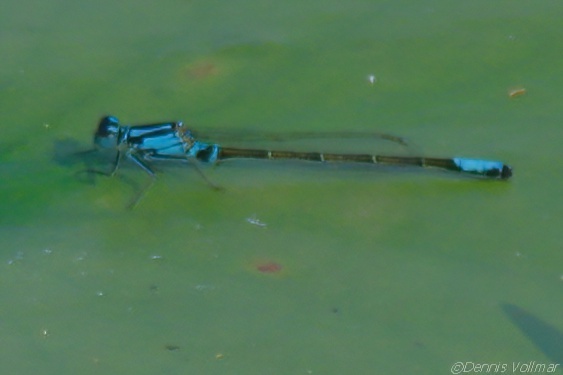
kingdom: Animalia
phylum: Arthropoda
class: Insecta
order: Odonata
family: Coenagrionidae
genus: Ischnura
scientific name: Ischnura kellicotti
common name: Lilypad forktail
